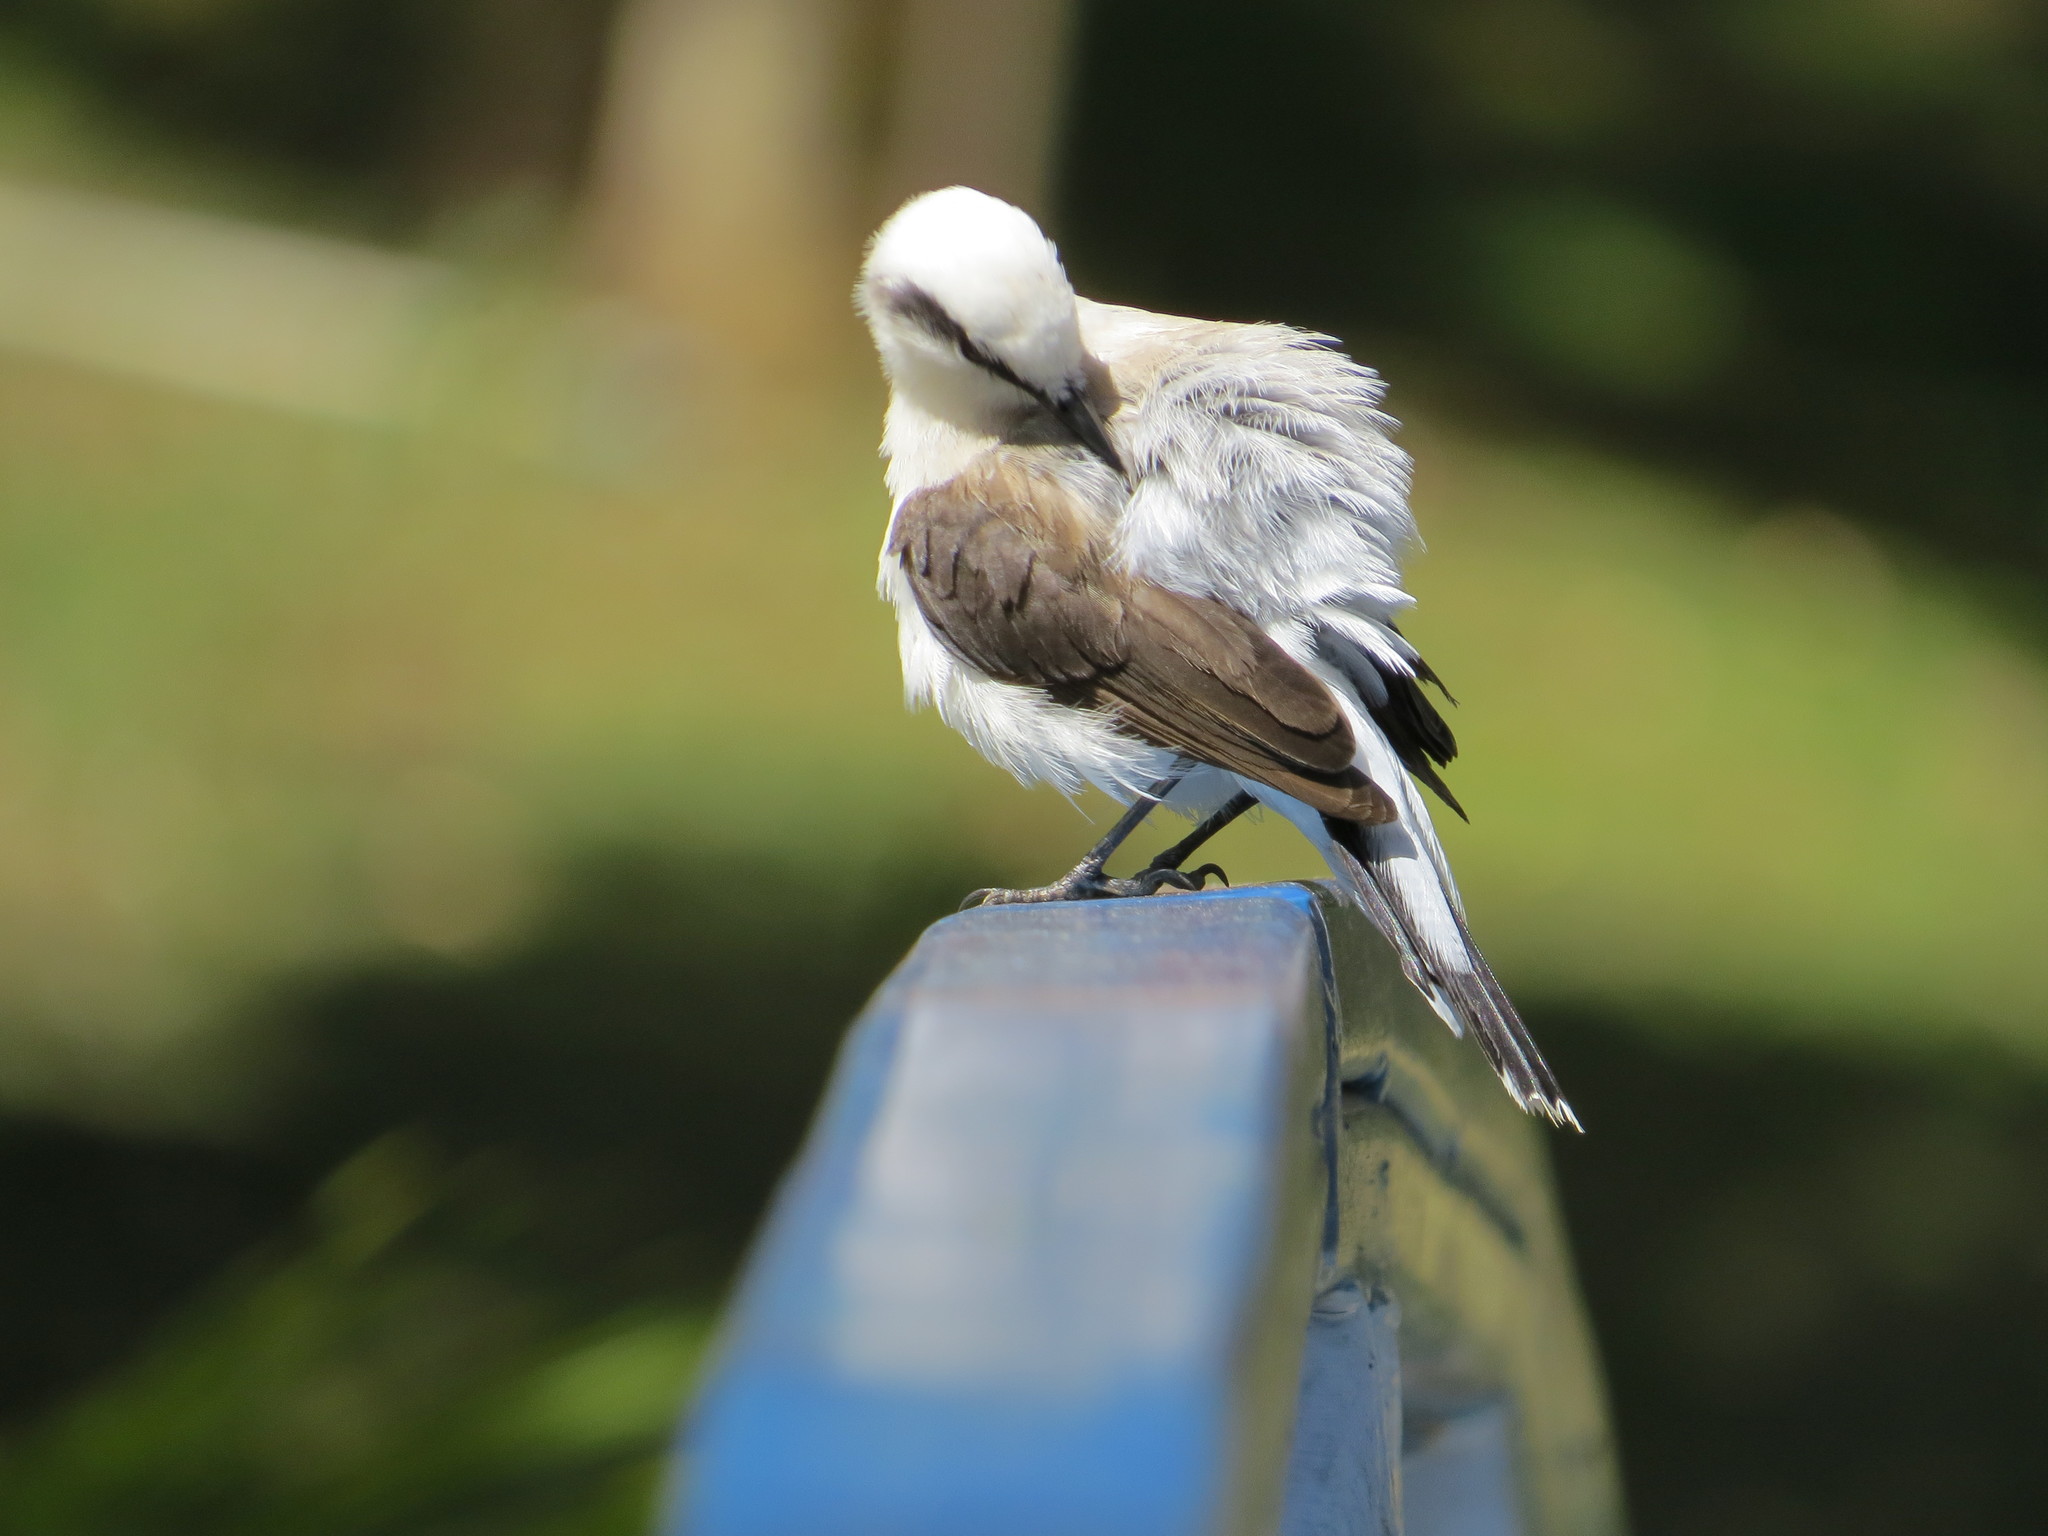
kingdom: Animalia
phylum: Chordata
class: Aves
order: Passeriformes
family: Tyrannidae
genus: Fluvicola
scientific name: Fluvicola nengeta
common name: Masked water tyrant
